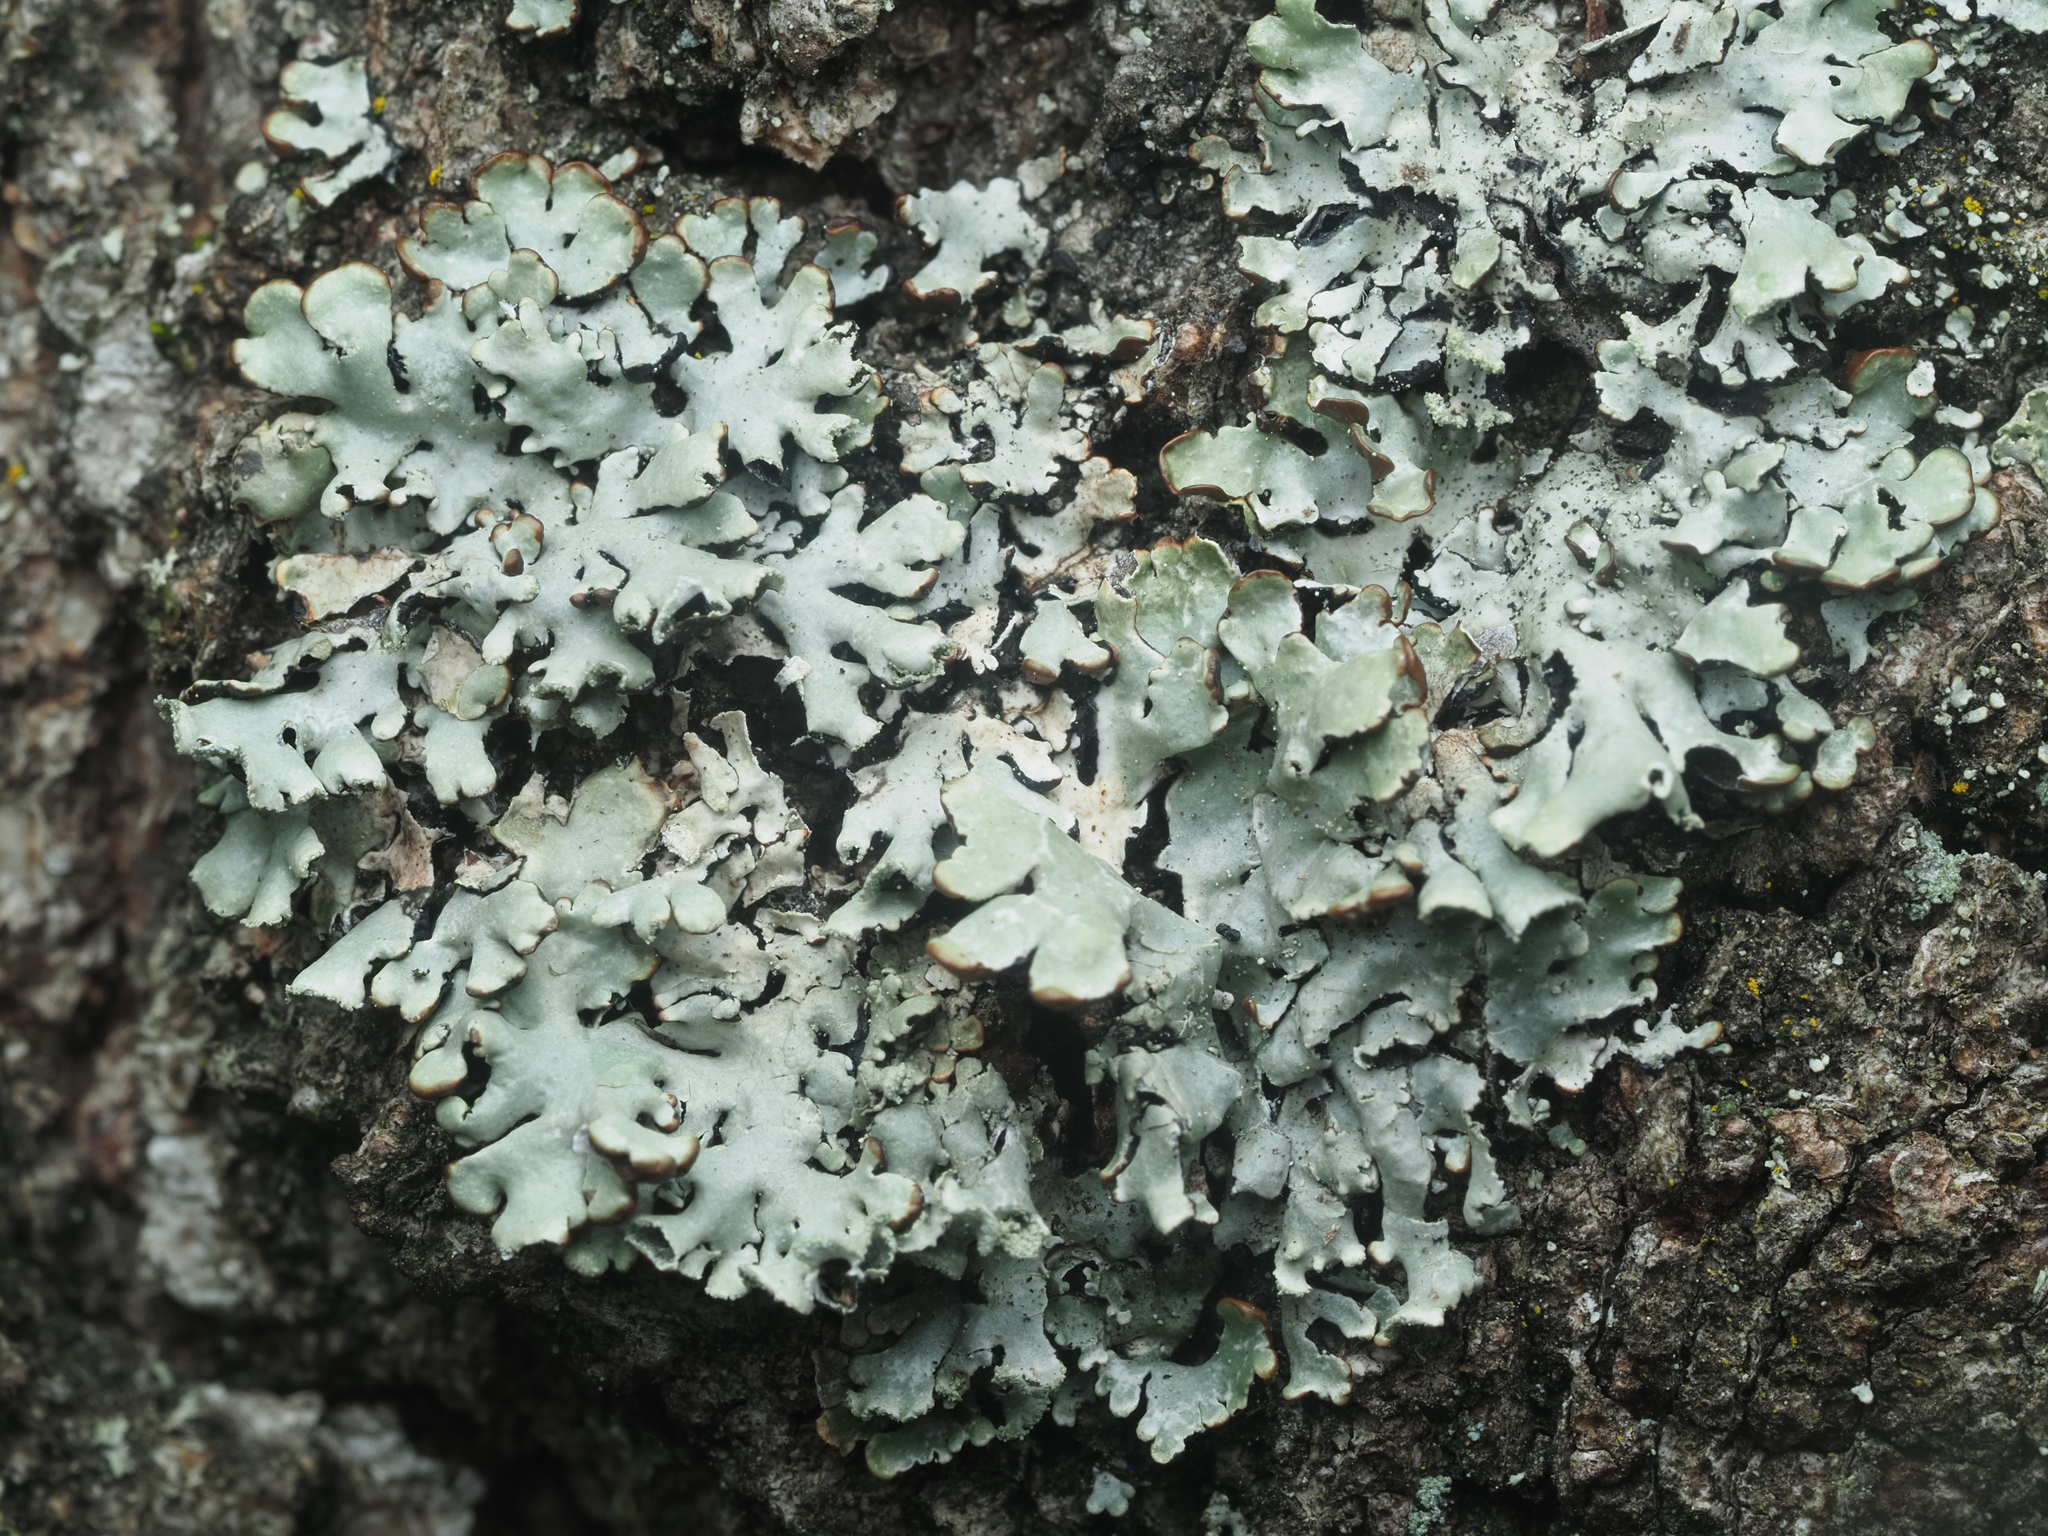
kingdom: Fungi
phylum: Ascomycota
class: Lecanoromycetes
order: Lecanorales
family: Parmeliaceae
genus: Hypogymnia
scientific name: Hypogymnia physodes
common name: Dark crottle
